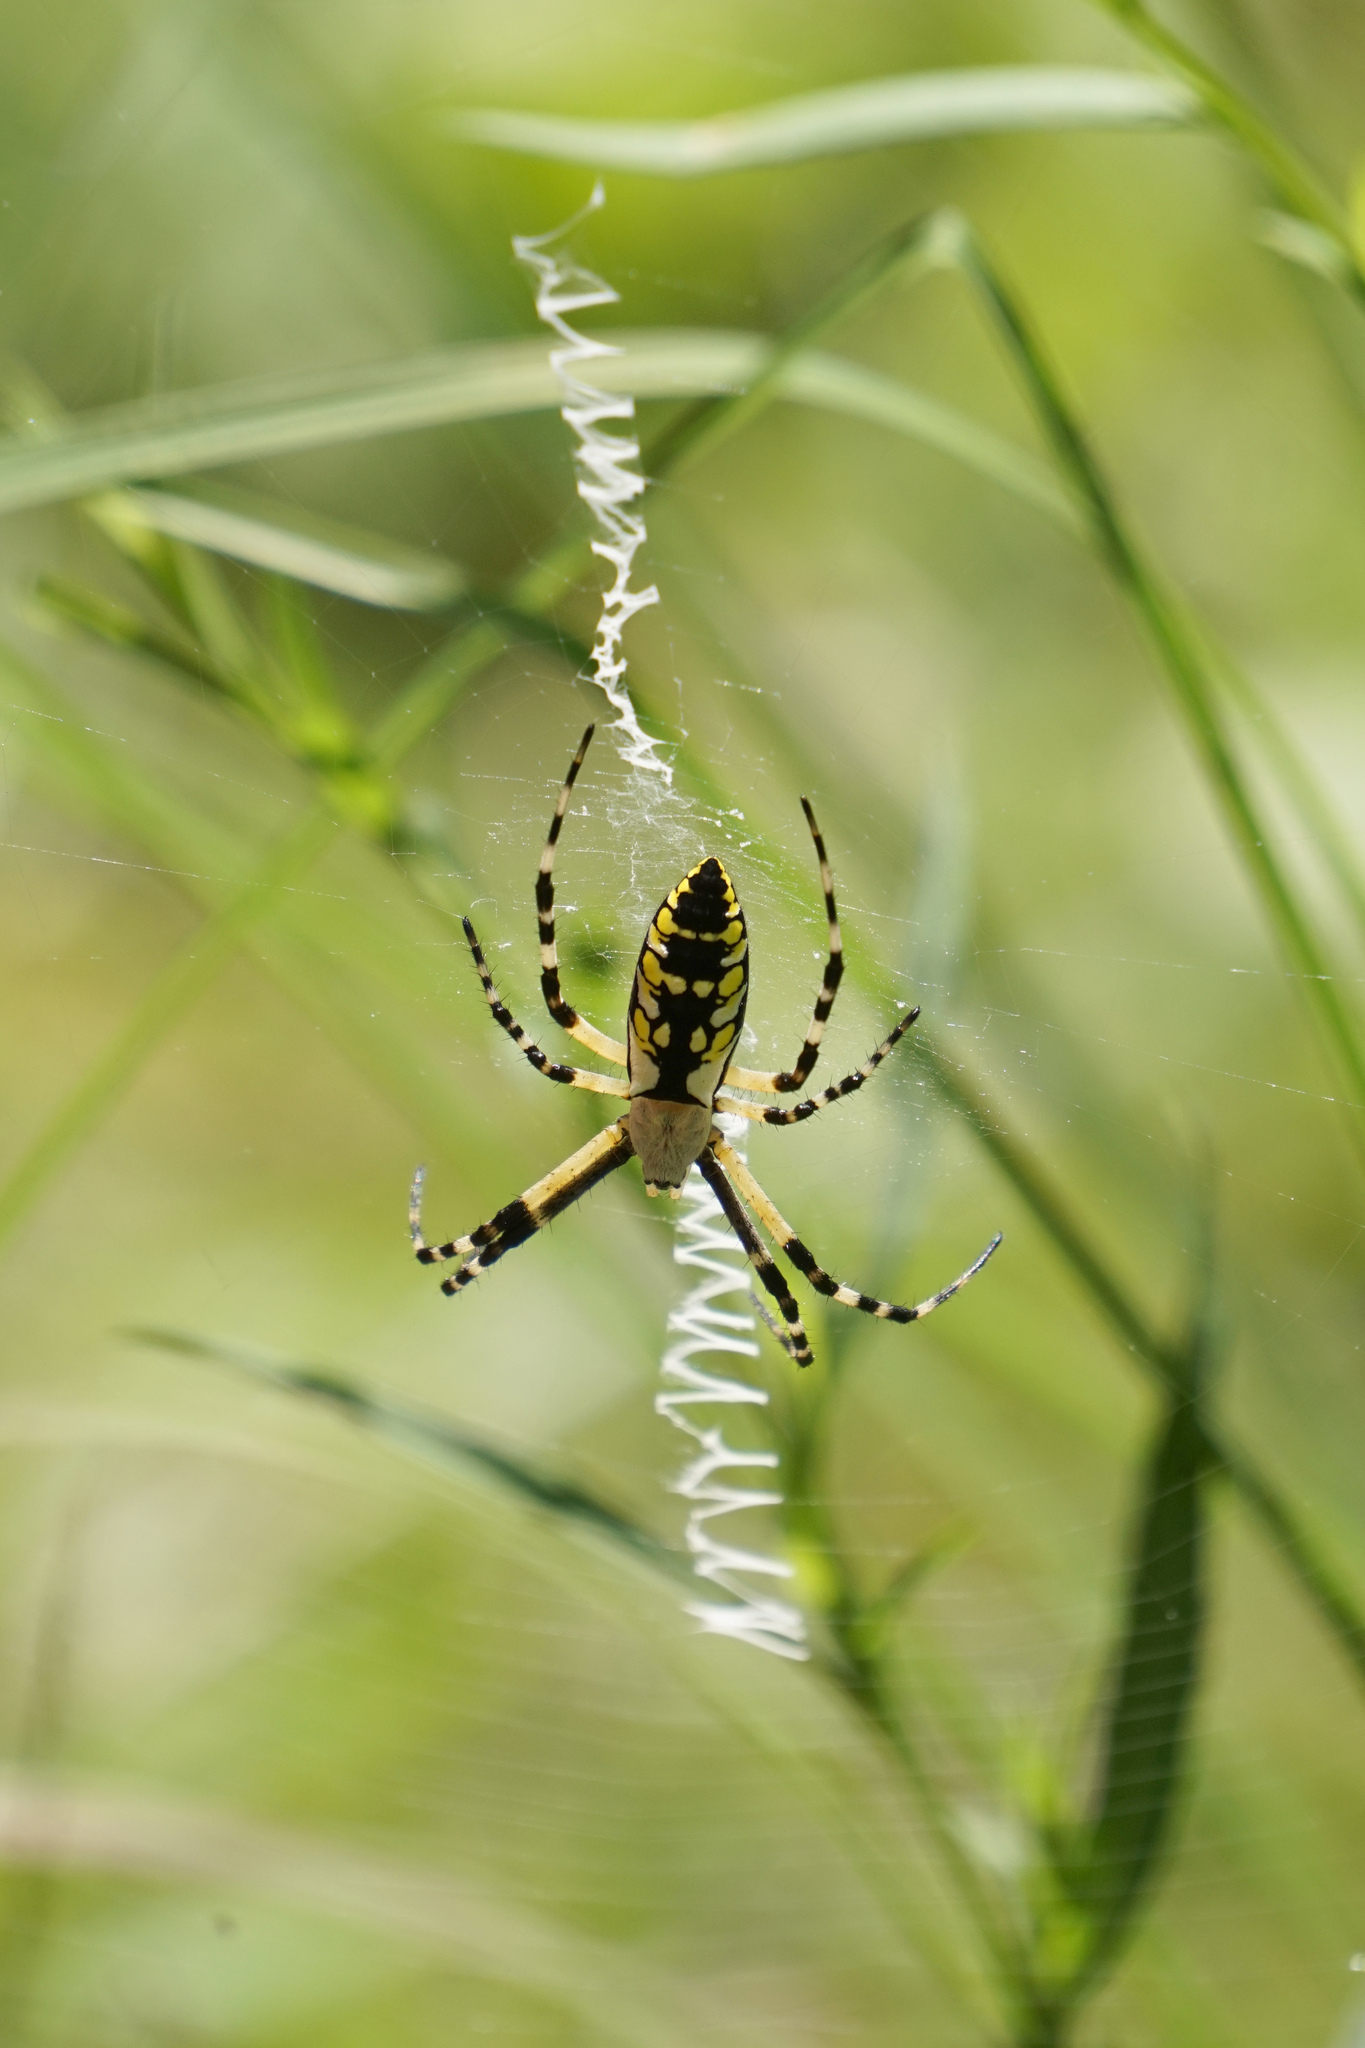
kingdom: Animalia
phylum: Arthropoda
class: Arachnida
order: Araneae
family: Araneidae
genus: Argiope
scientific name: Argiope aurantia
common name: Orb weavers
